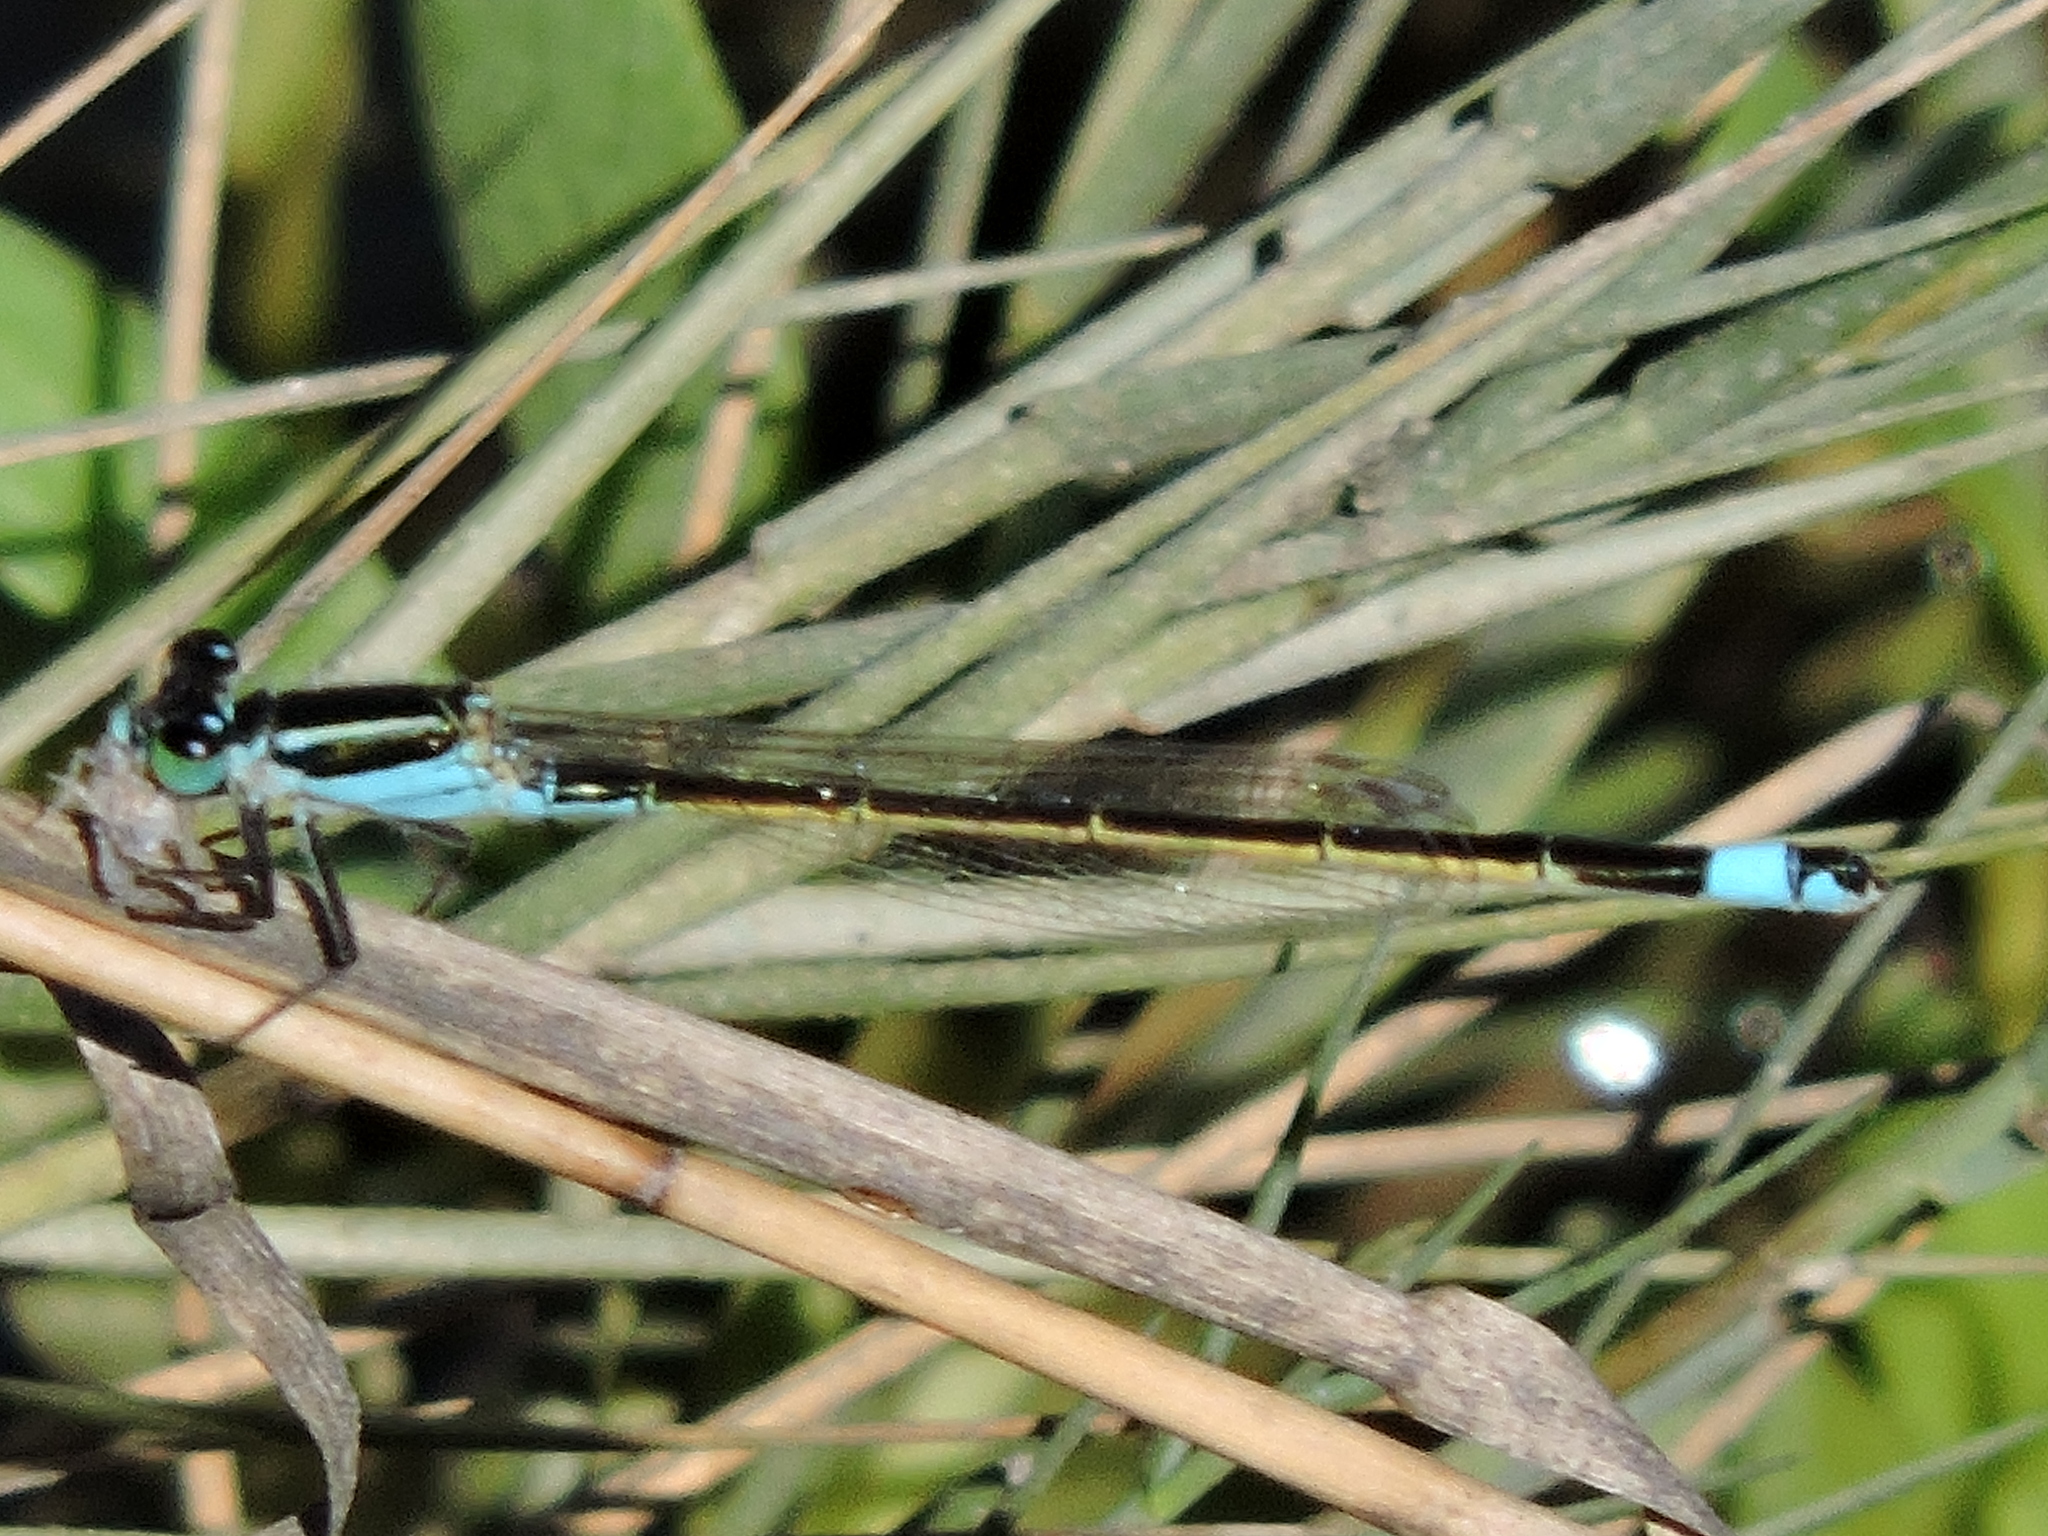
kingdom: Animalia
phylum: Arthropoda
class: Insecta
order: Odonata
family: Coenagrionidae
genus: Ischnura
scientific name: Ischnura ramburii
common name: Rambur's forktail
